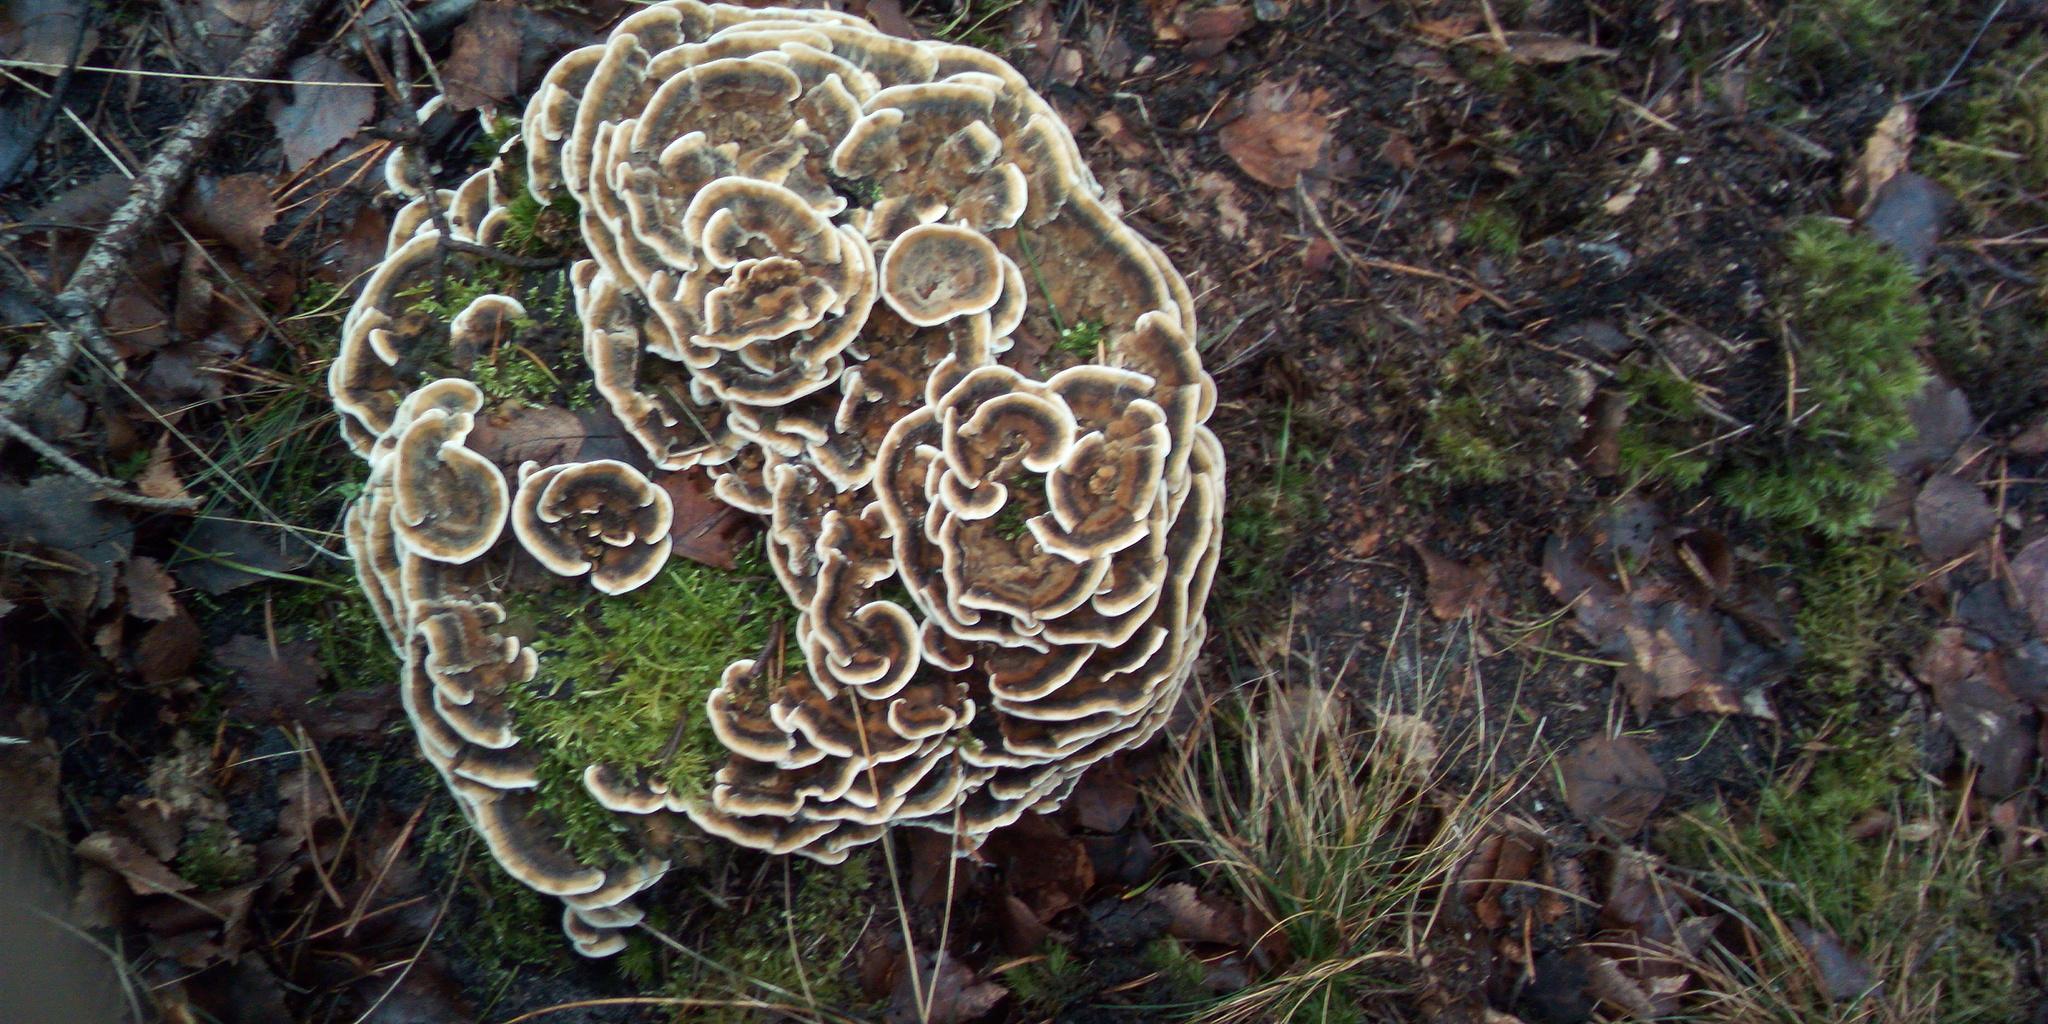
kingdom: Fungi
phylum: Basidiomycota
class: Agaricomycetes
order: Polyporales
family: Phanerochaetaceae
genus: Bjerkandera
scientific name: Bjerkandera adusta
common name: Smoky bracket
